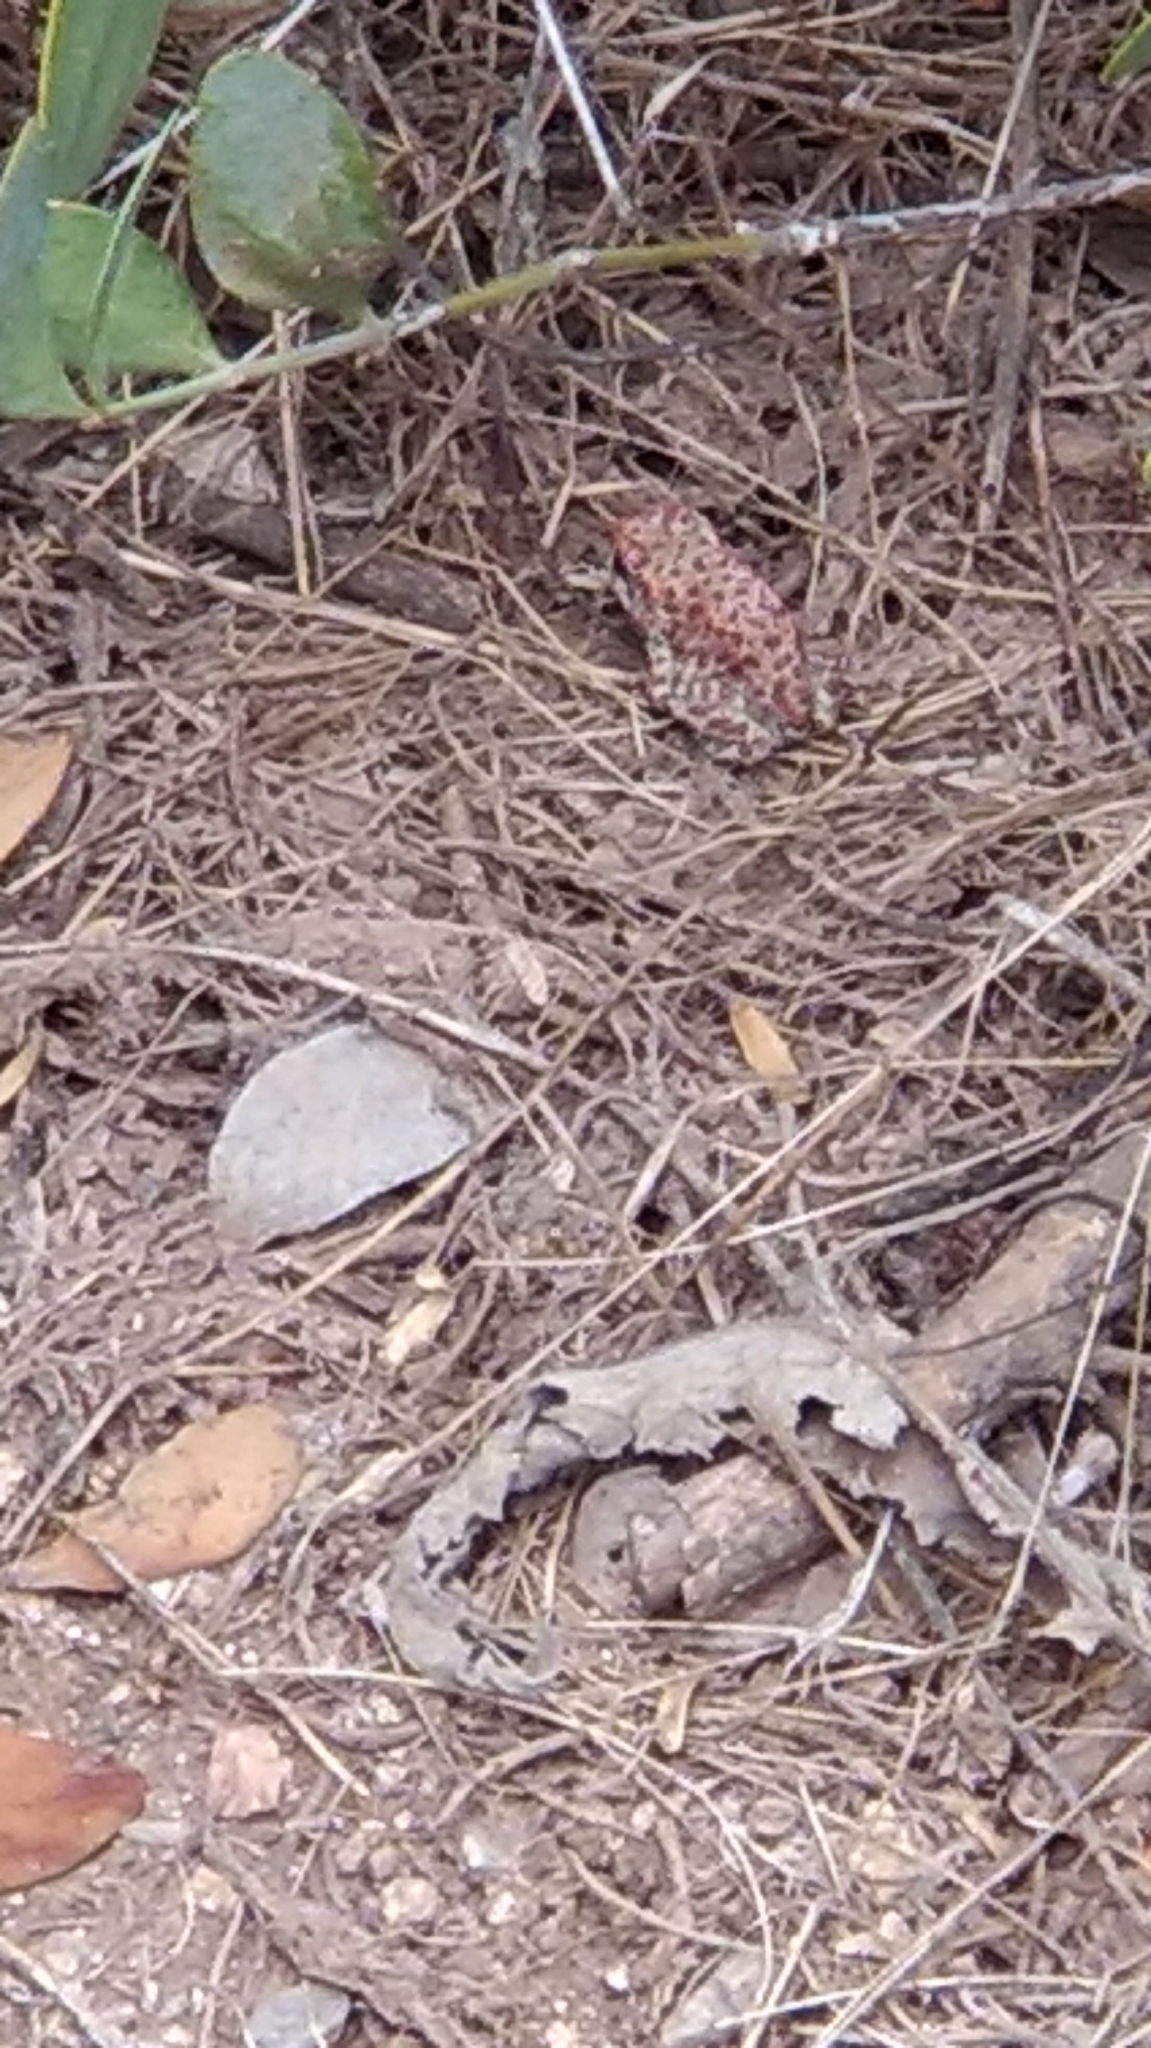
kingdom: Animalia
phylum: Chordata
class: Amphibia
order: Anura
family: Bufonidae
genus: Anaxyrus
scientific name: Anaxyrus punctatus
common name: Red-spotted toad
